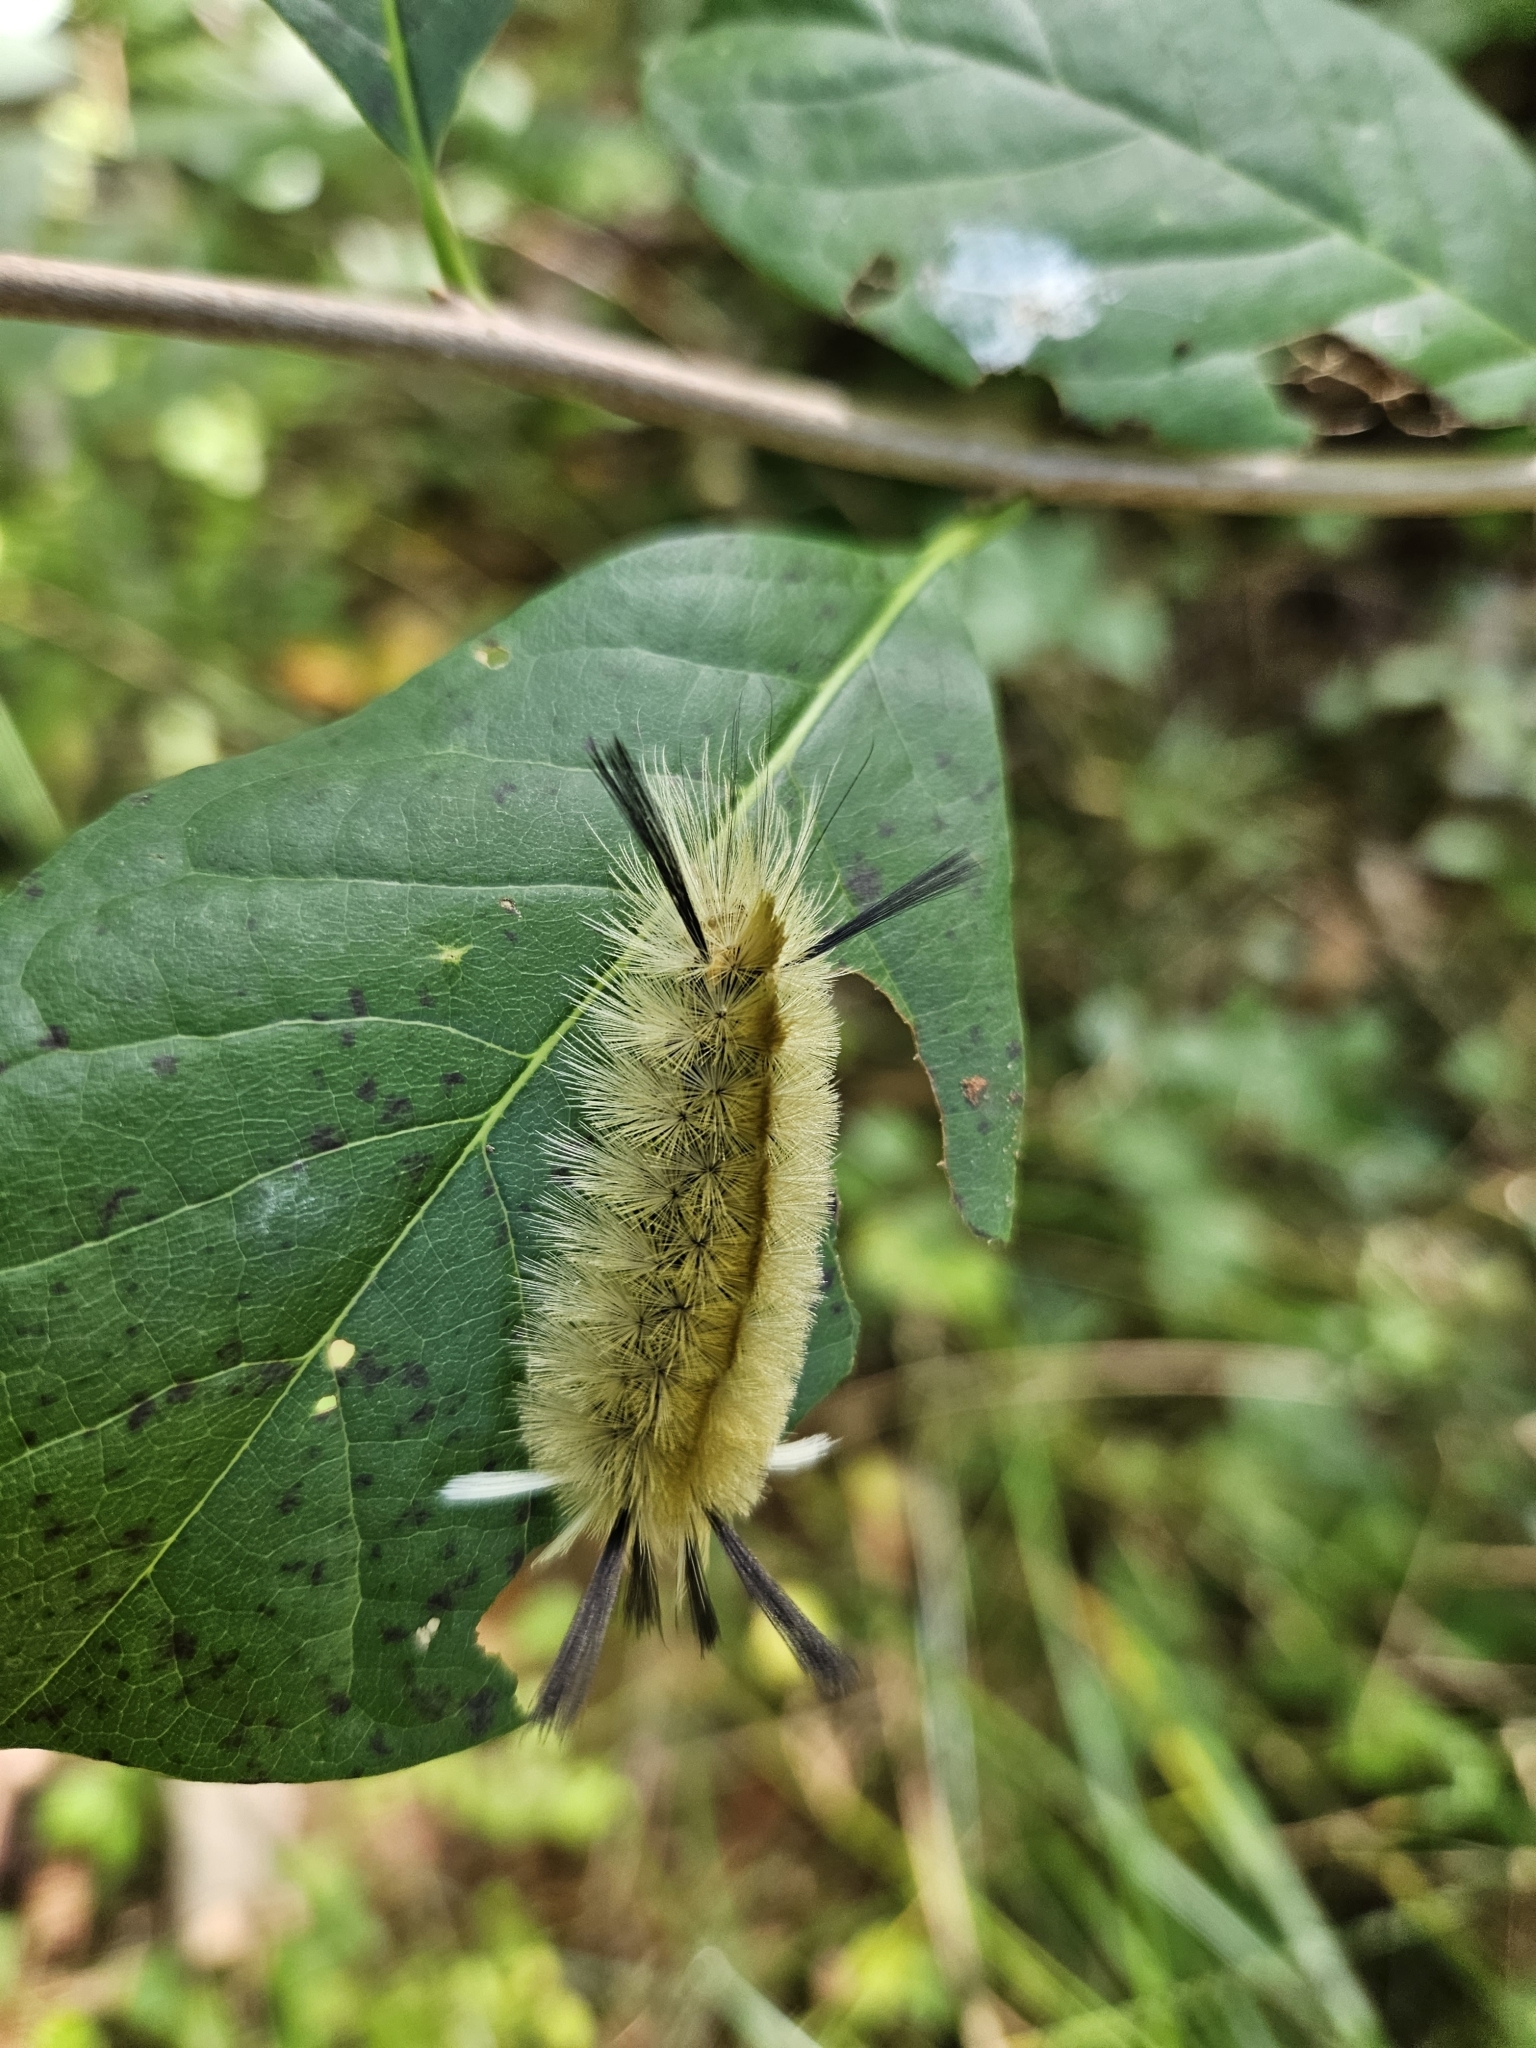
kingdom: Animalia
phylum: Arthropoda
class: Insecta
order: Lepidoptera
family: Erebidae
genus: Halysidota
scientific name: Halysidota tessellaris
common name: Banded tussock moth
